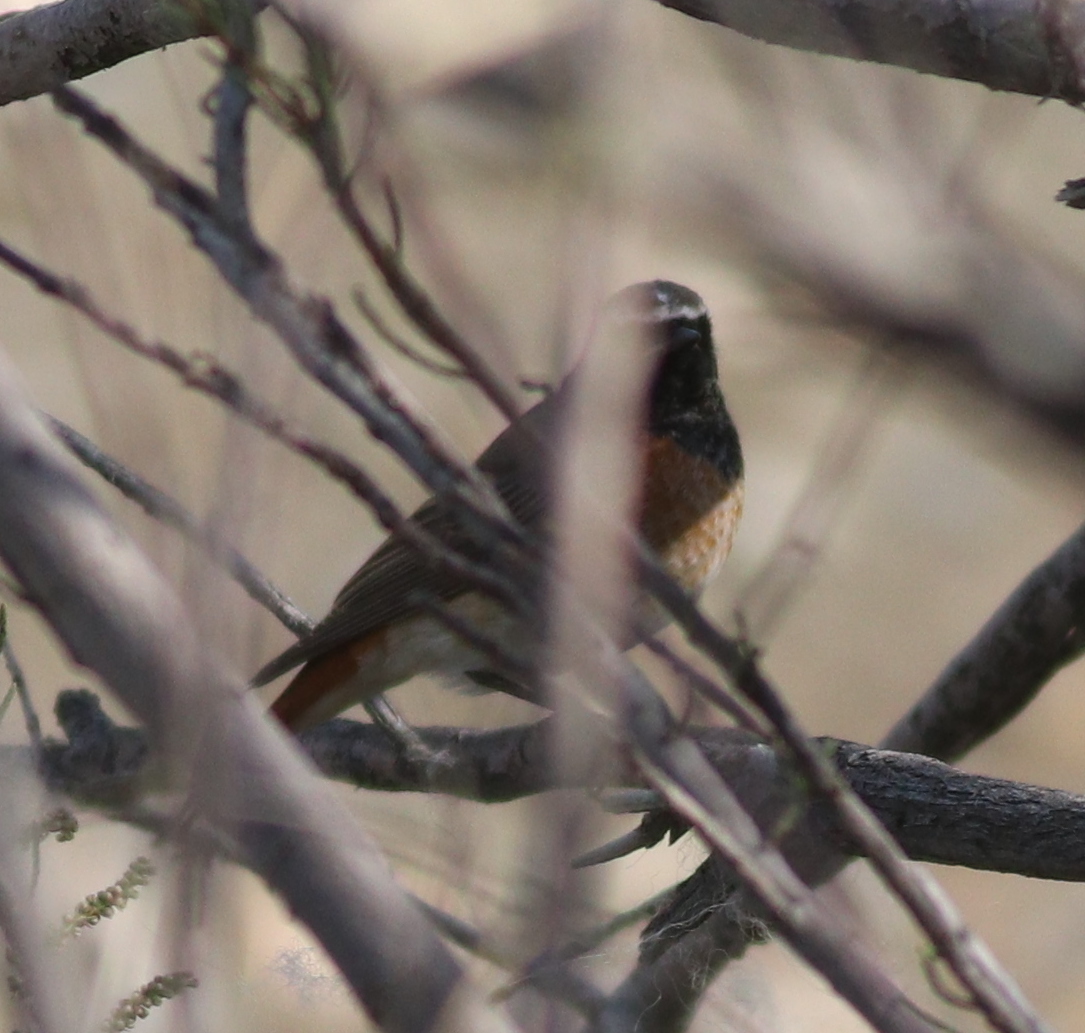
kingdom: Animalia
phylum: Chordata
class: Aves
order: Passeriformes
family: Muscicapidae
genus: Phoenicurus
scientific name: Phoenicurus phoenicurus
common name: Common redstart
